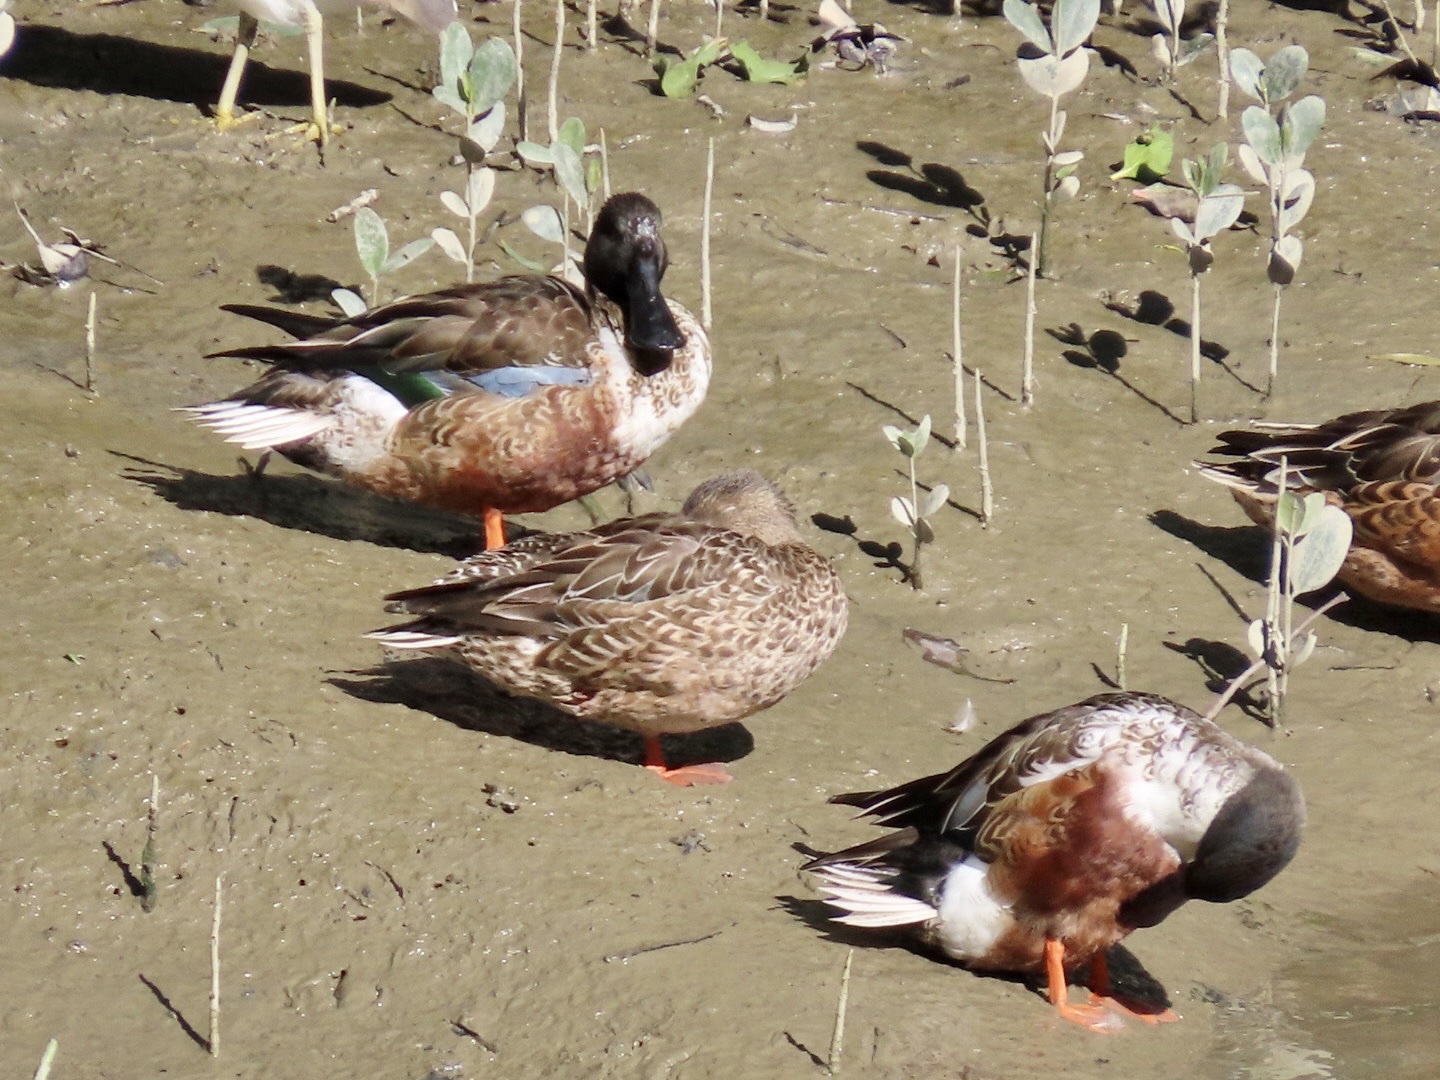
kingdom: Animalia
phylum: Chordata
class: Aves
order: Anseriformes
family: Anatidae
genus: Spatula
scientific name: Spatula clypeata
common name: Northern shoveler
